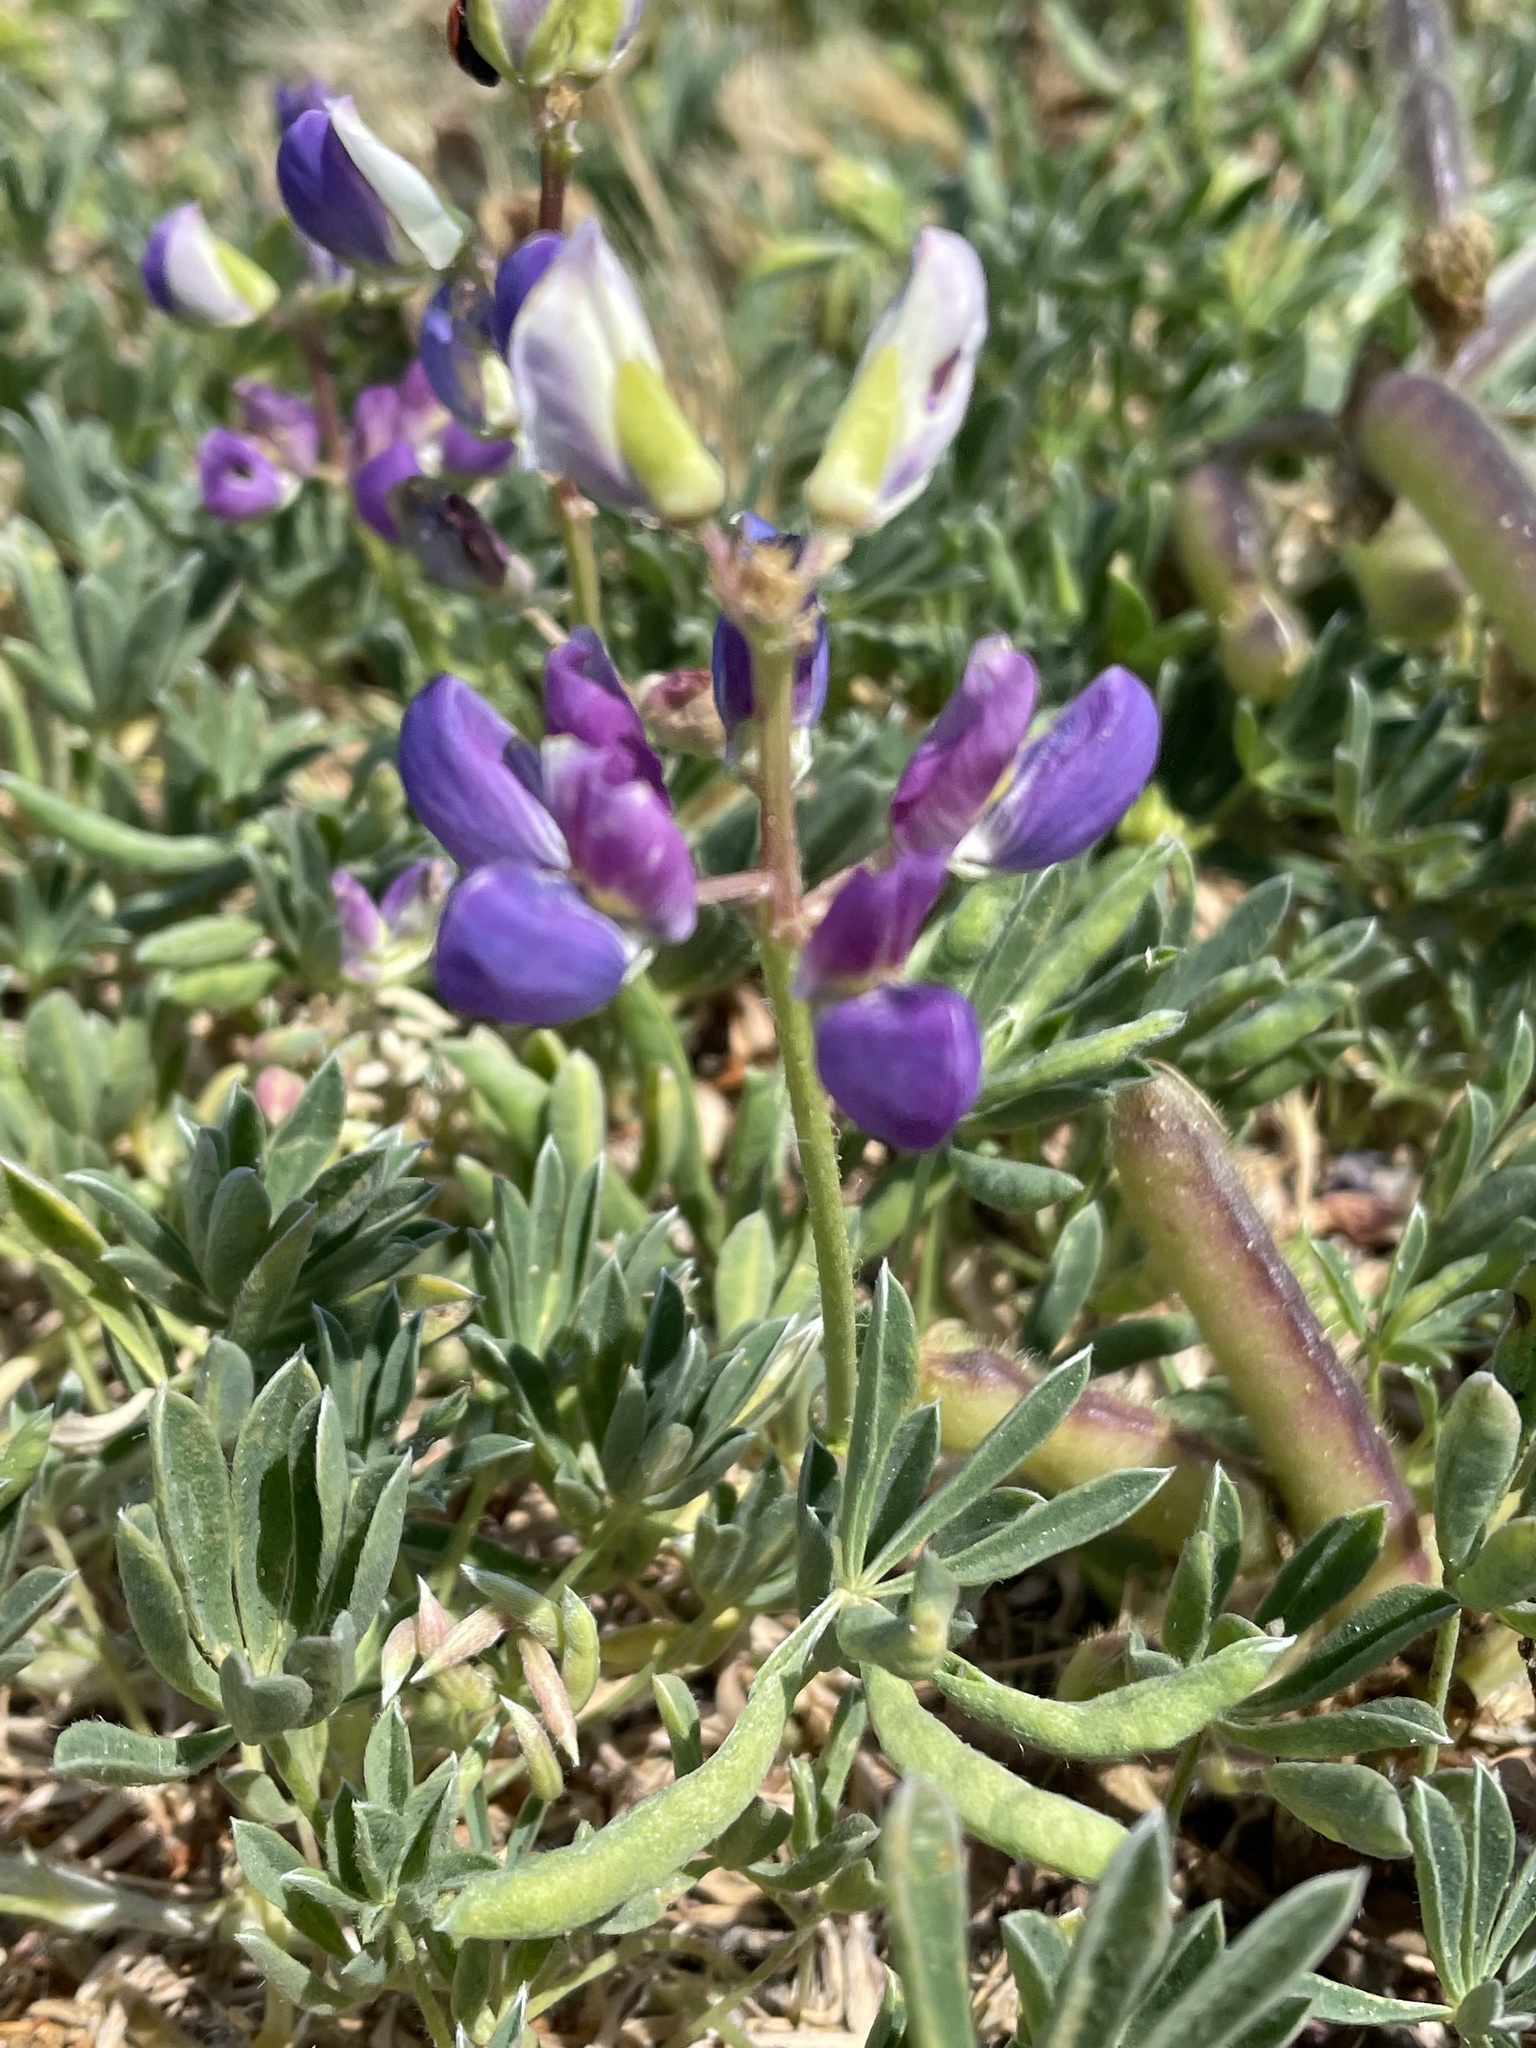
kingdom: Plantae
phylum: Tracheophyta
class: Magnoliopsida
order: Fabales
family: Fabaceae
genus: Lupinus
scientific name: Lupinus variicolor
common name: Lindley's varied lupine
